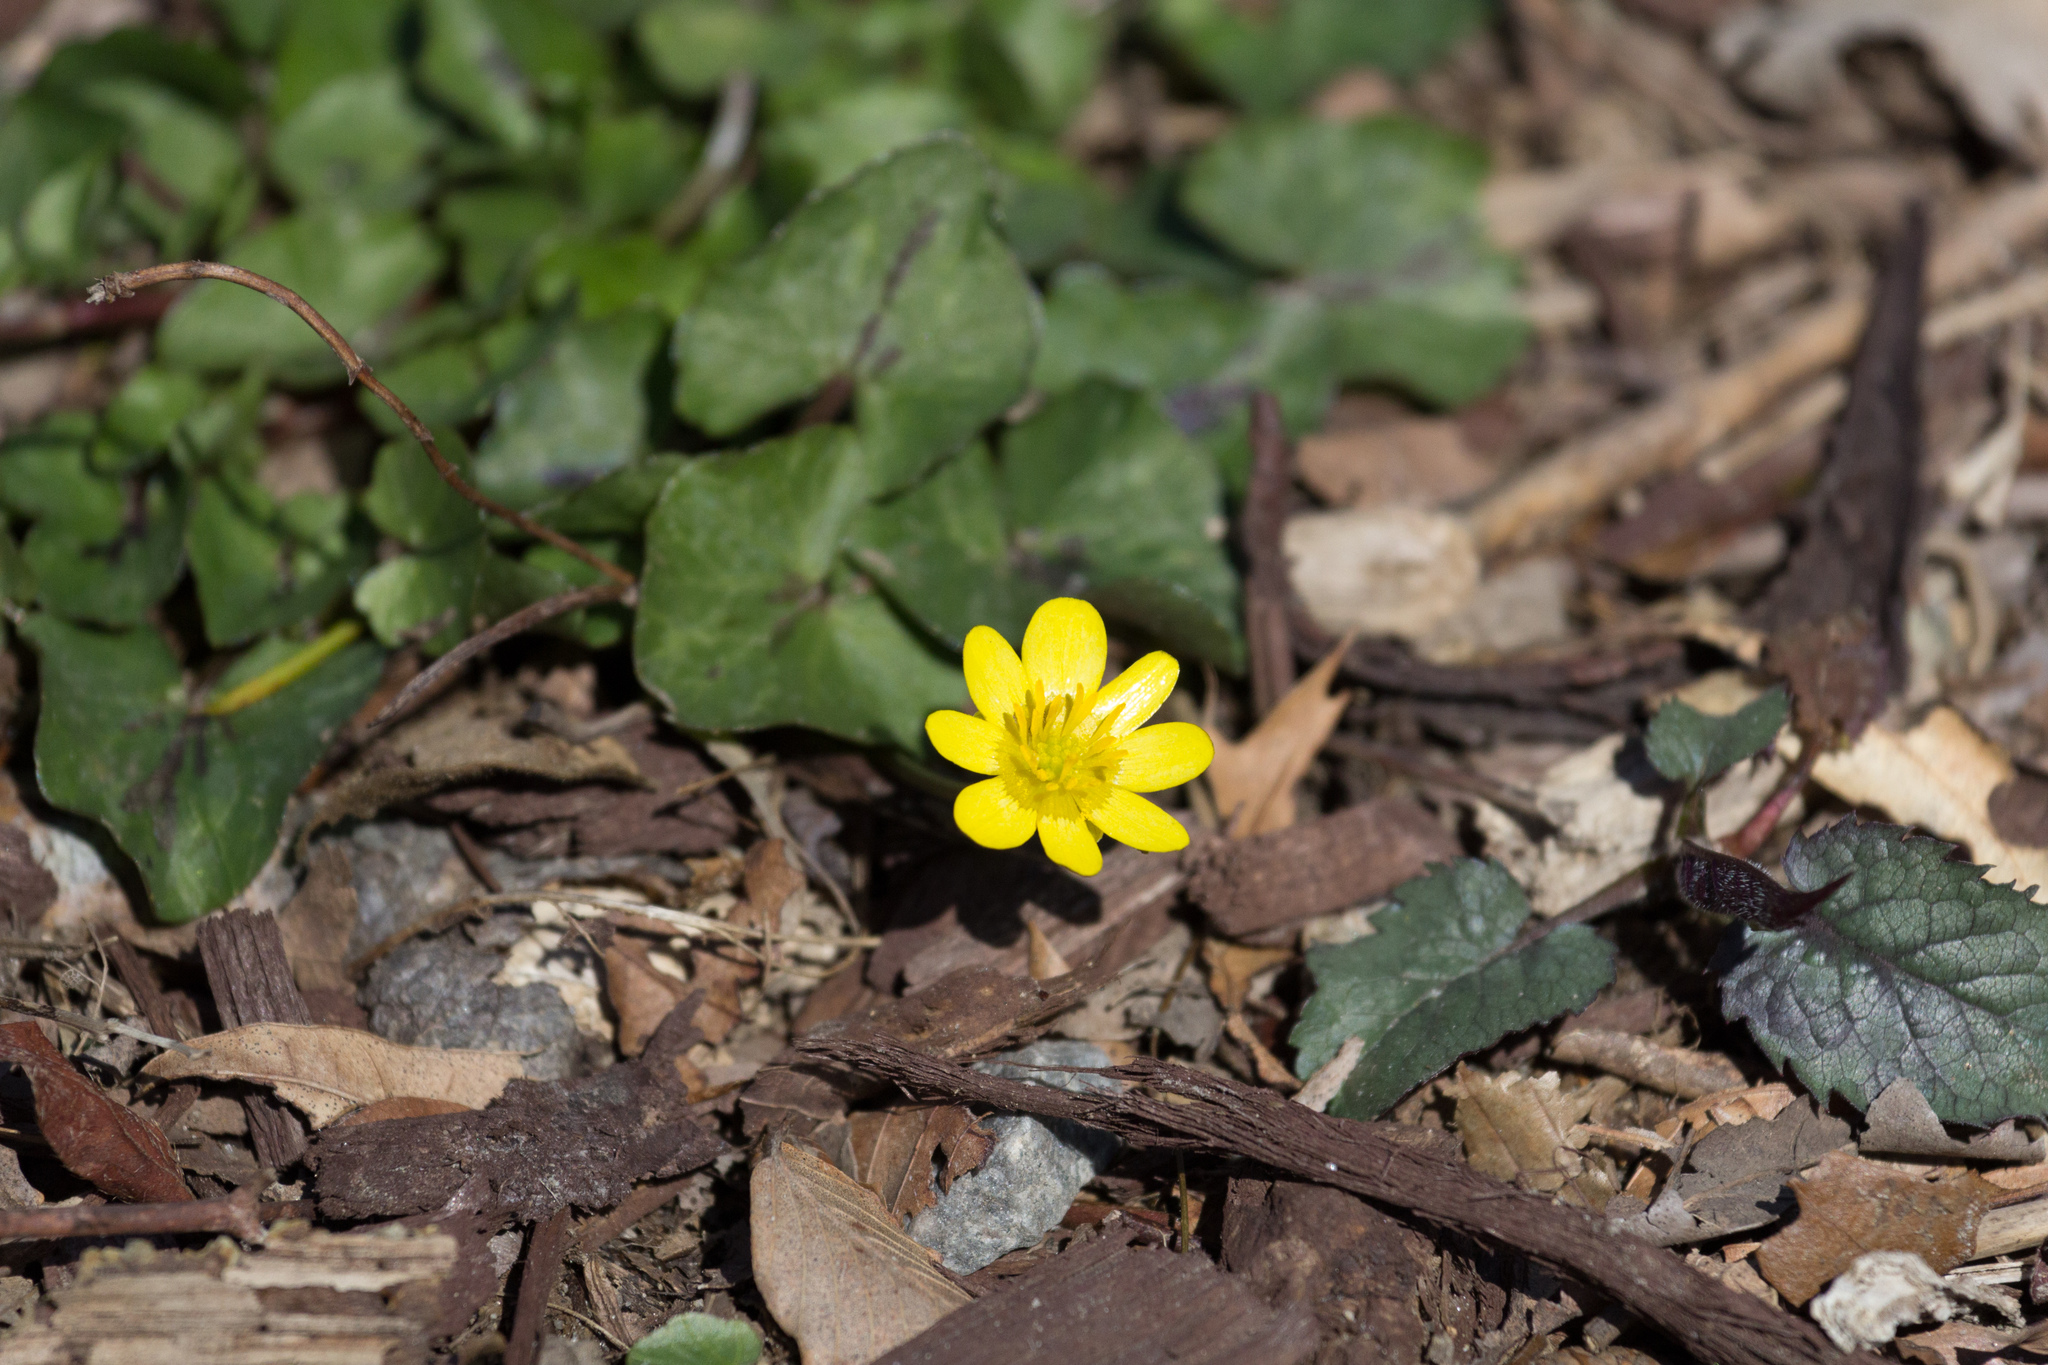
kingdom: Plantae
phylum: Tracheophyta
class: Magnoliopsida
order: Ranunculales
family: Ranunculaceae
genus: Ficaria
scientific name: Ficaria verna
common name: Lesser celandine
